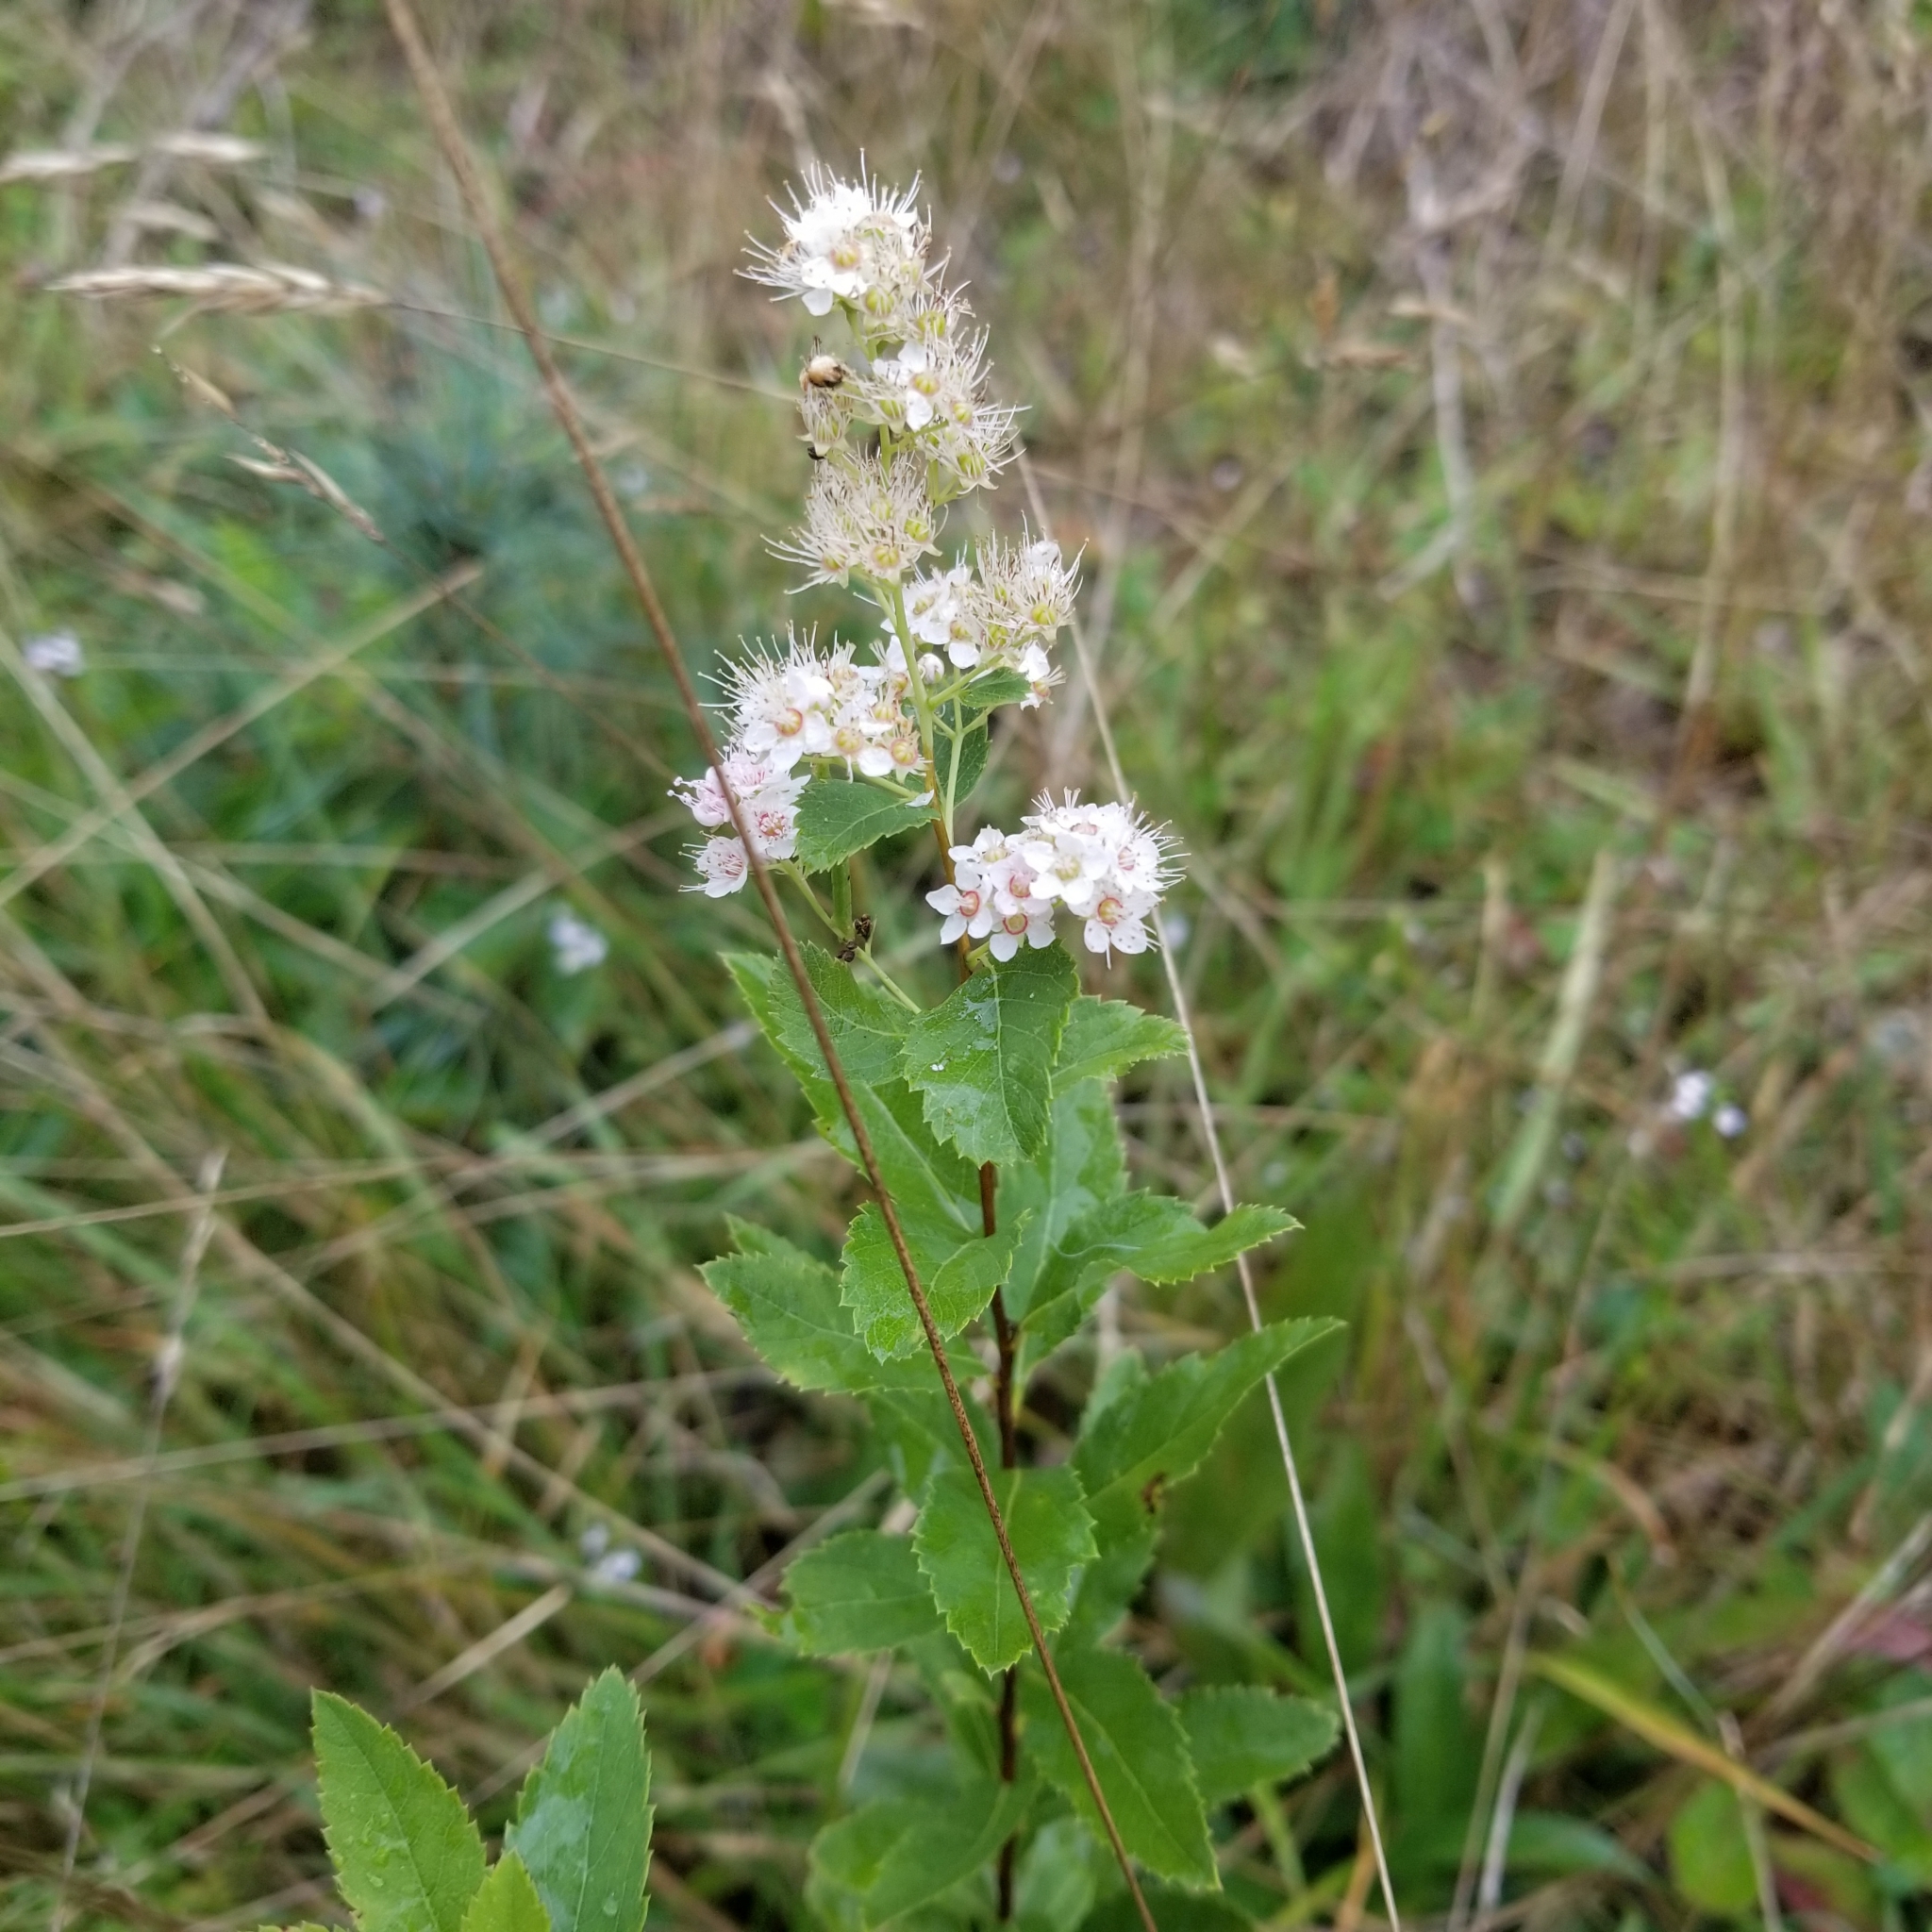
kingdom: Plantae
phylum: Tracheophyta
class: Magnoliopsida
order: Rosales
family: Rosaceae
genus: Spiraea
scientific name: Spiraea alba
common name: Pale bridewort
